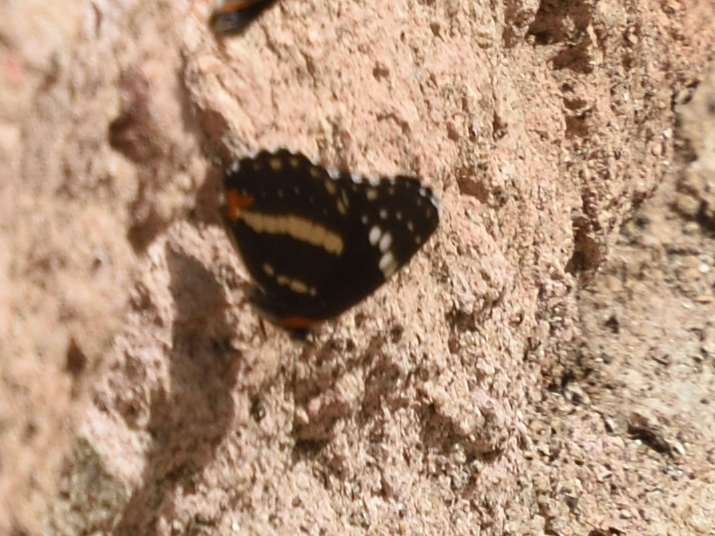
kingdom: Animalia
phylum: Arthropoda
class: Insecta
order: Lepidoptera
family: Nymphalidae
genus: Chlosyne
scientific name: Chlosyne lacinia
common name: Bordered patch
